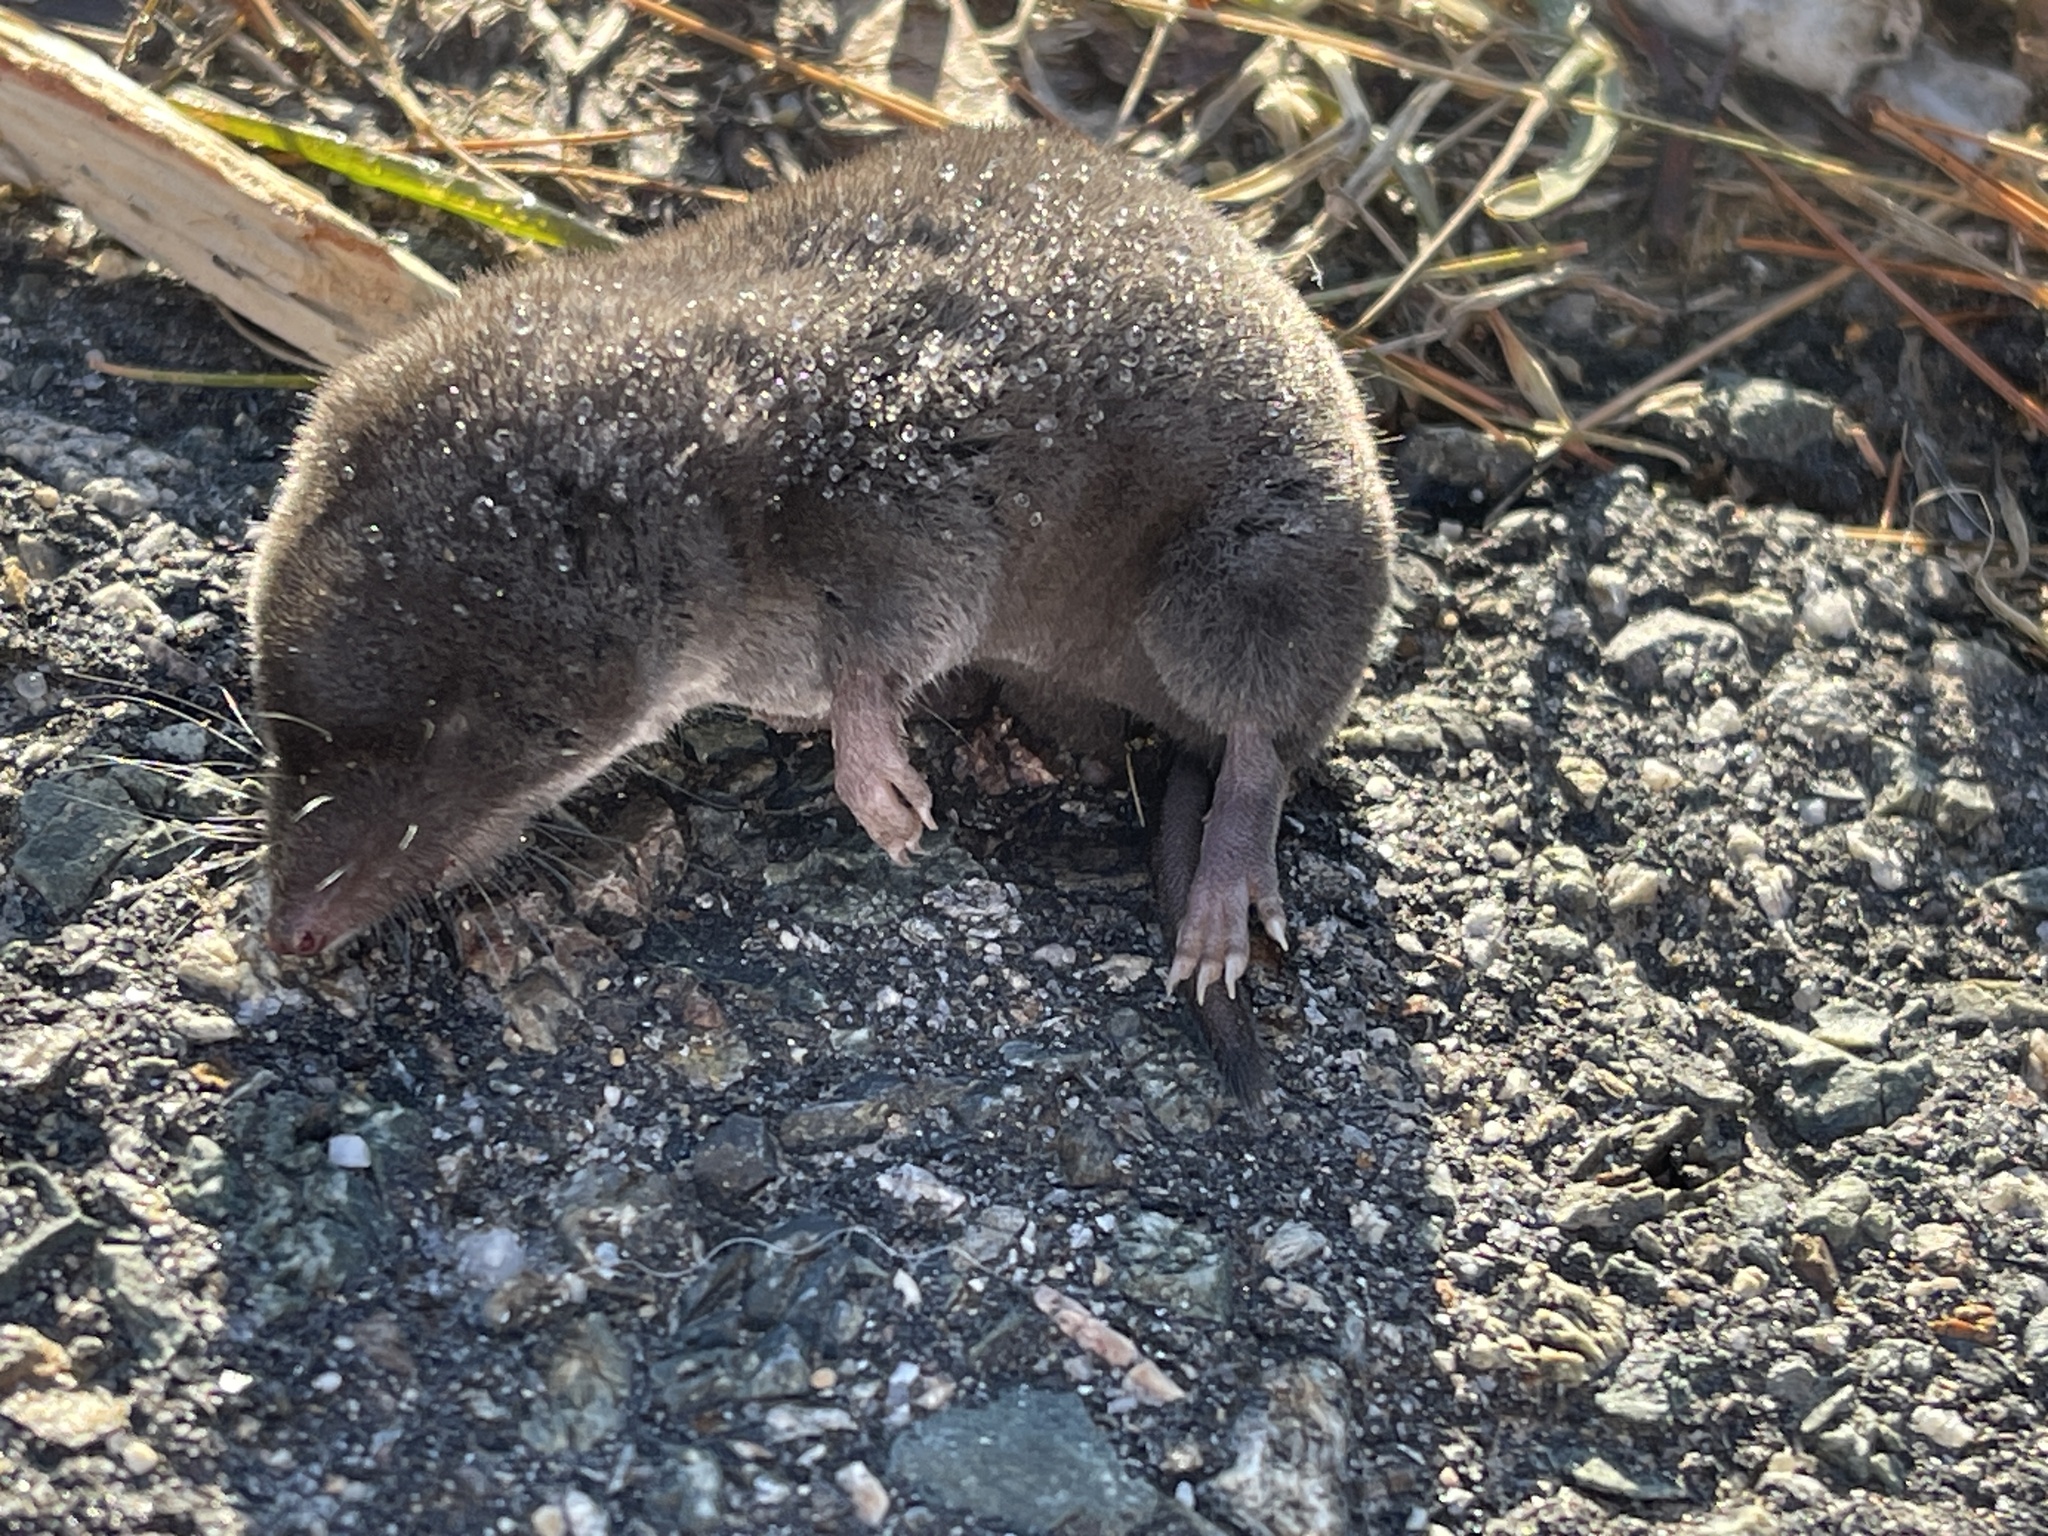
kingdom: Animalia
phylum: Chordata
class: Mammalia
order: Soricomorpha
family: Soricidae
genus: Blarina
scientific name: Blarina brevicauda
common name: Northern short-tailed shrew
